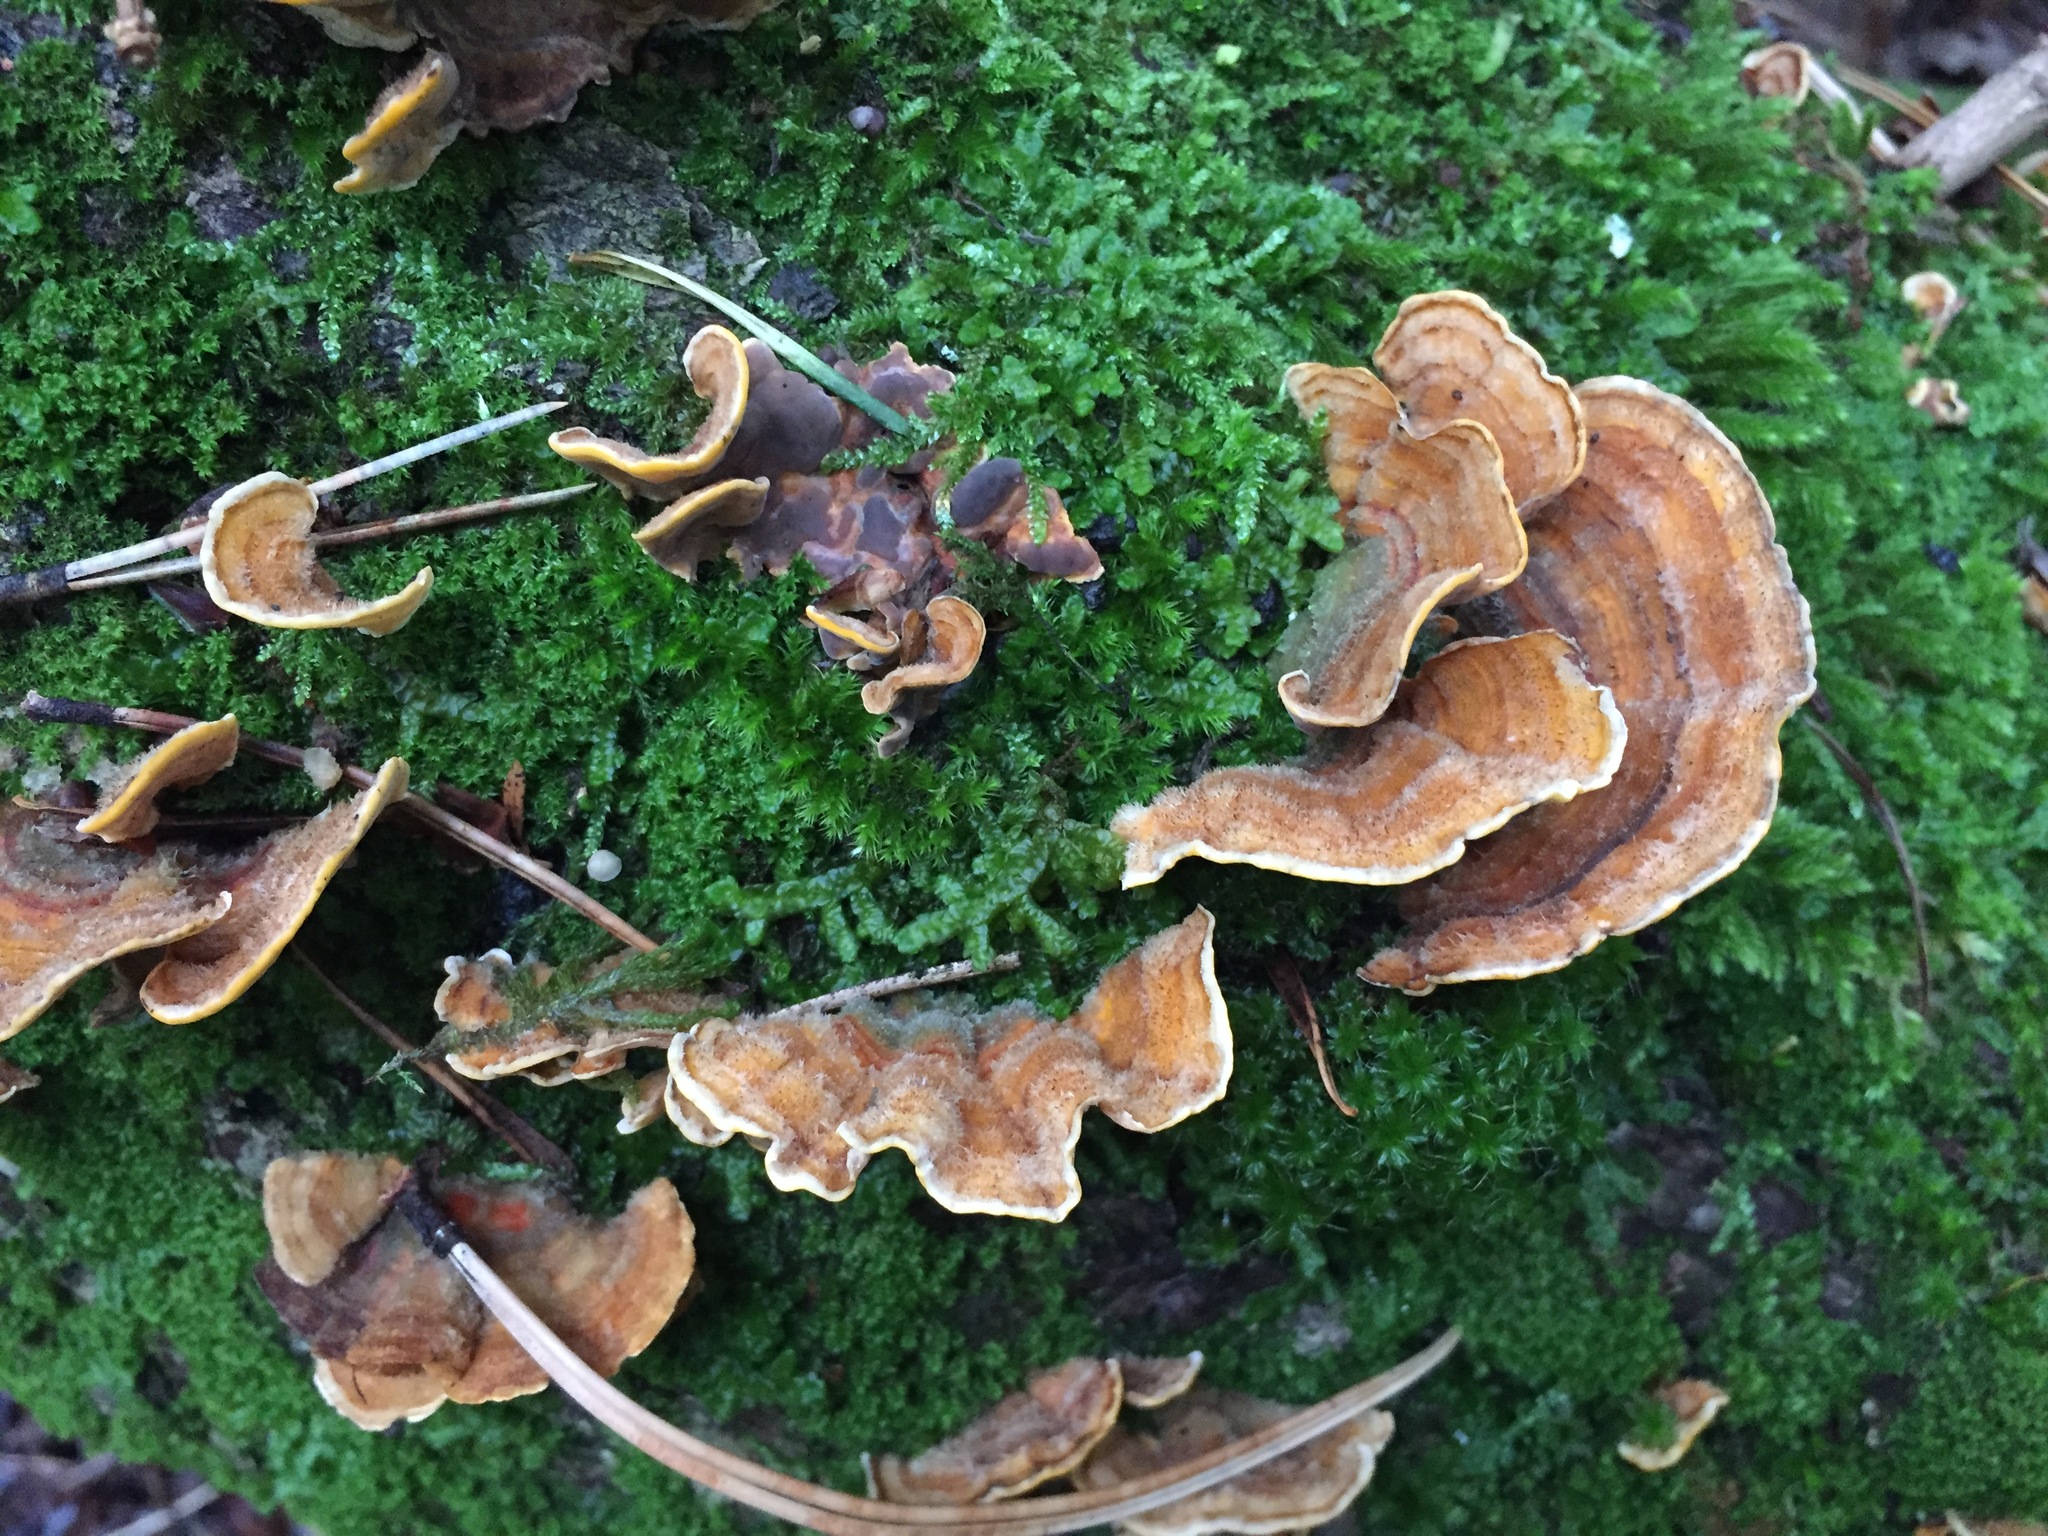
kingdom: Fungi
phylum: Basidiomycota
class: Agaricomycetes
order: Russulales
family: Stereaceae
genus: Stereum
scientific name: Stereum hirsutum
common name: Hairy curtain crust
